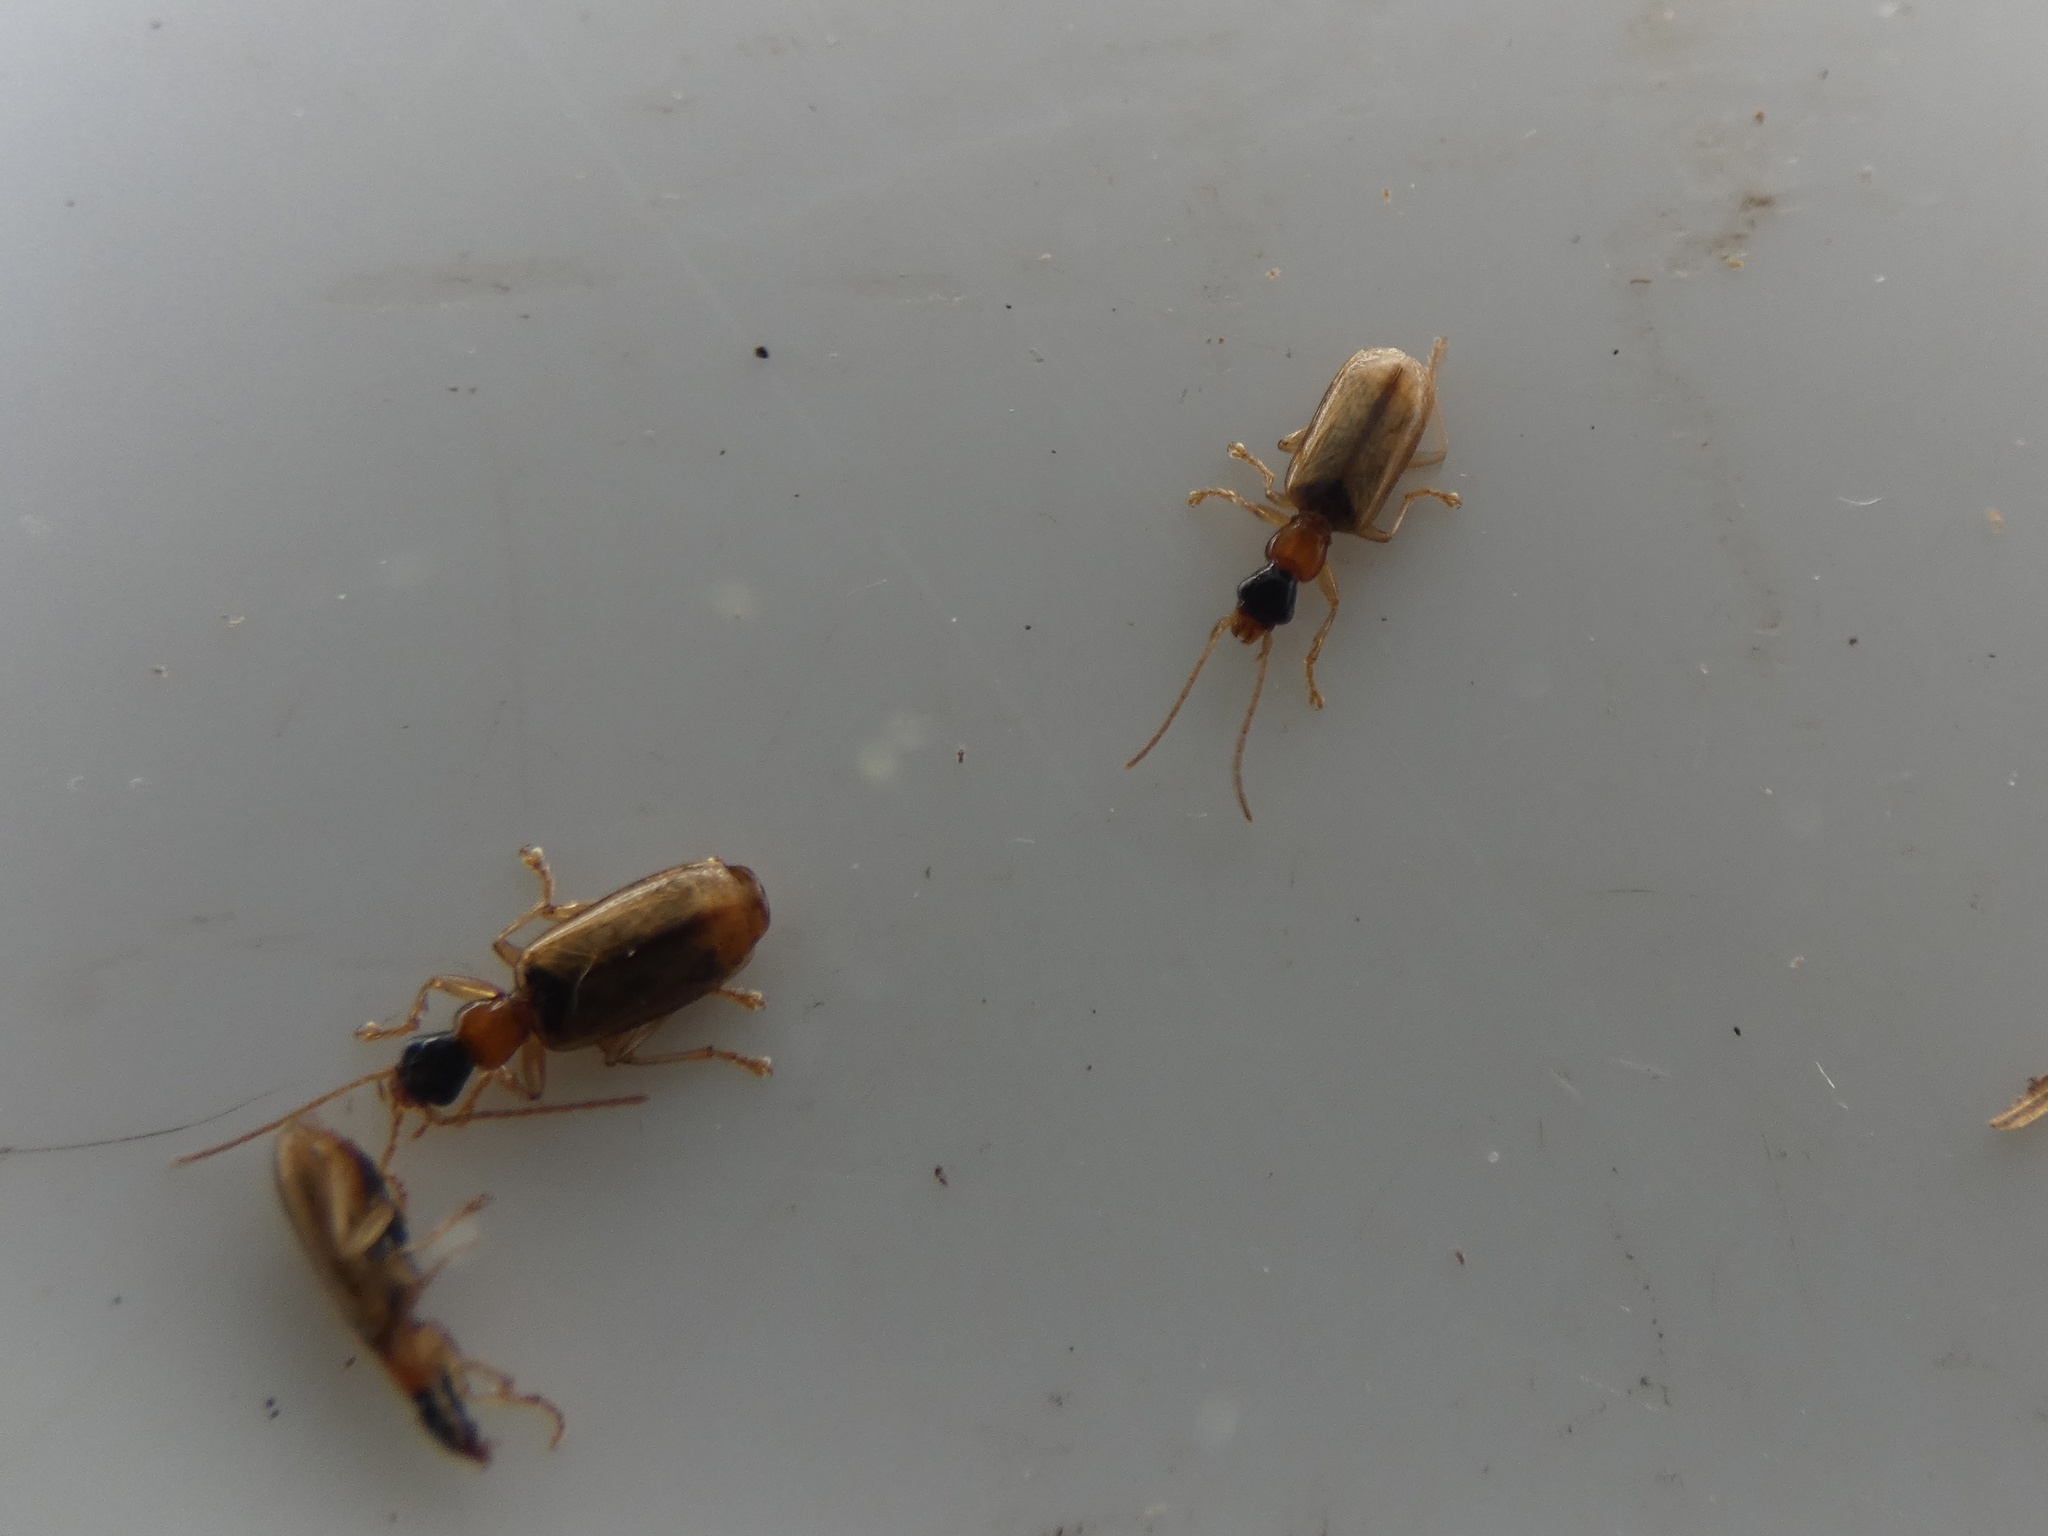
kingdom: Animalia
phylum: Arthropoda
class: Insecta
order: Coleoptera
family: Carabidae
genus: Demetrias
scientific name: Demetrias atricapillus
